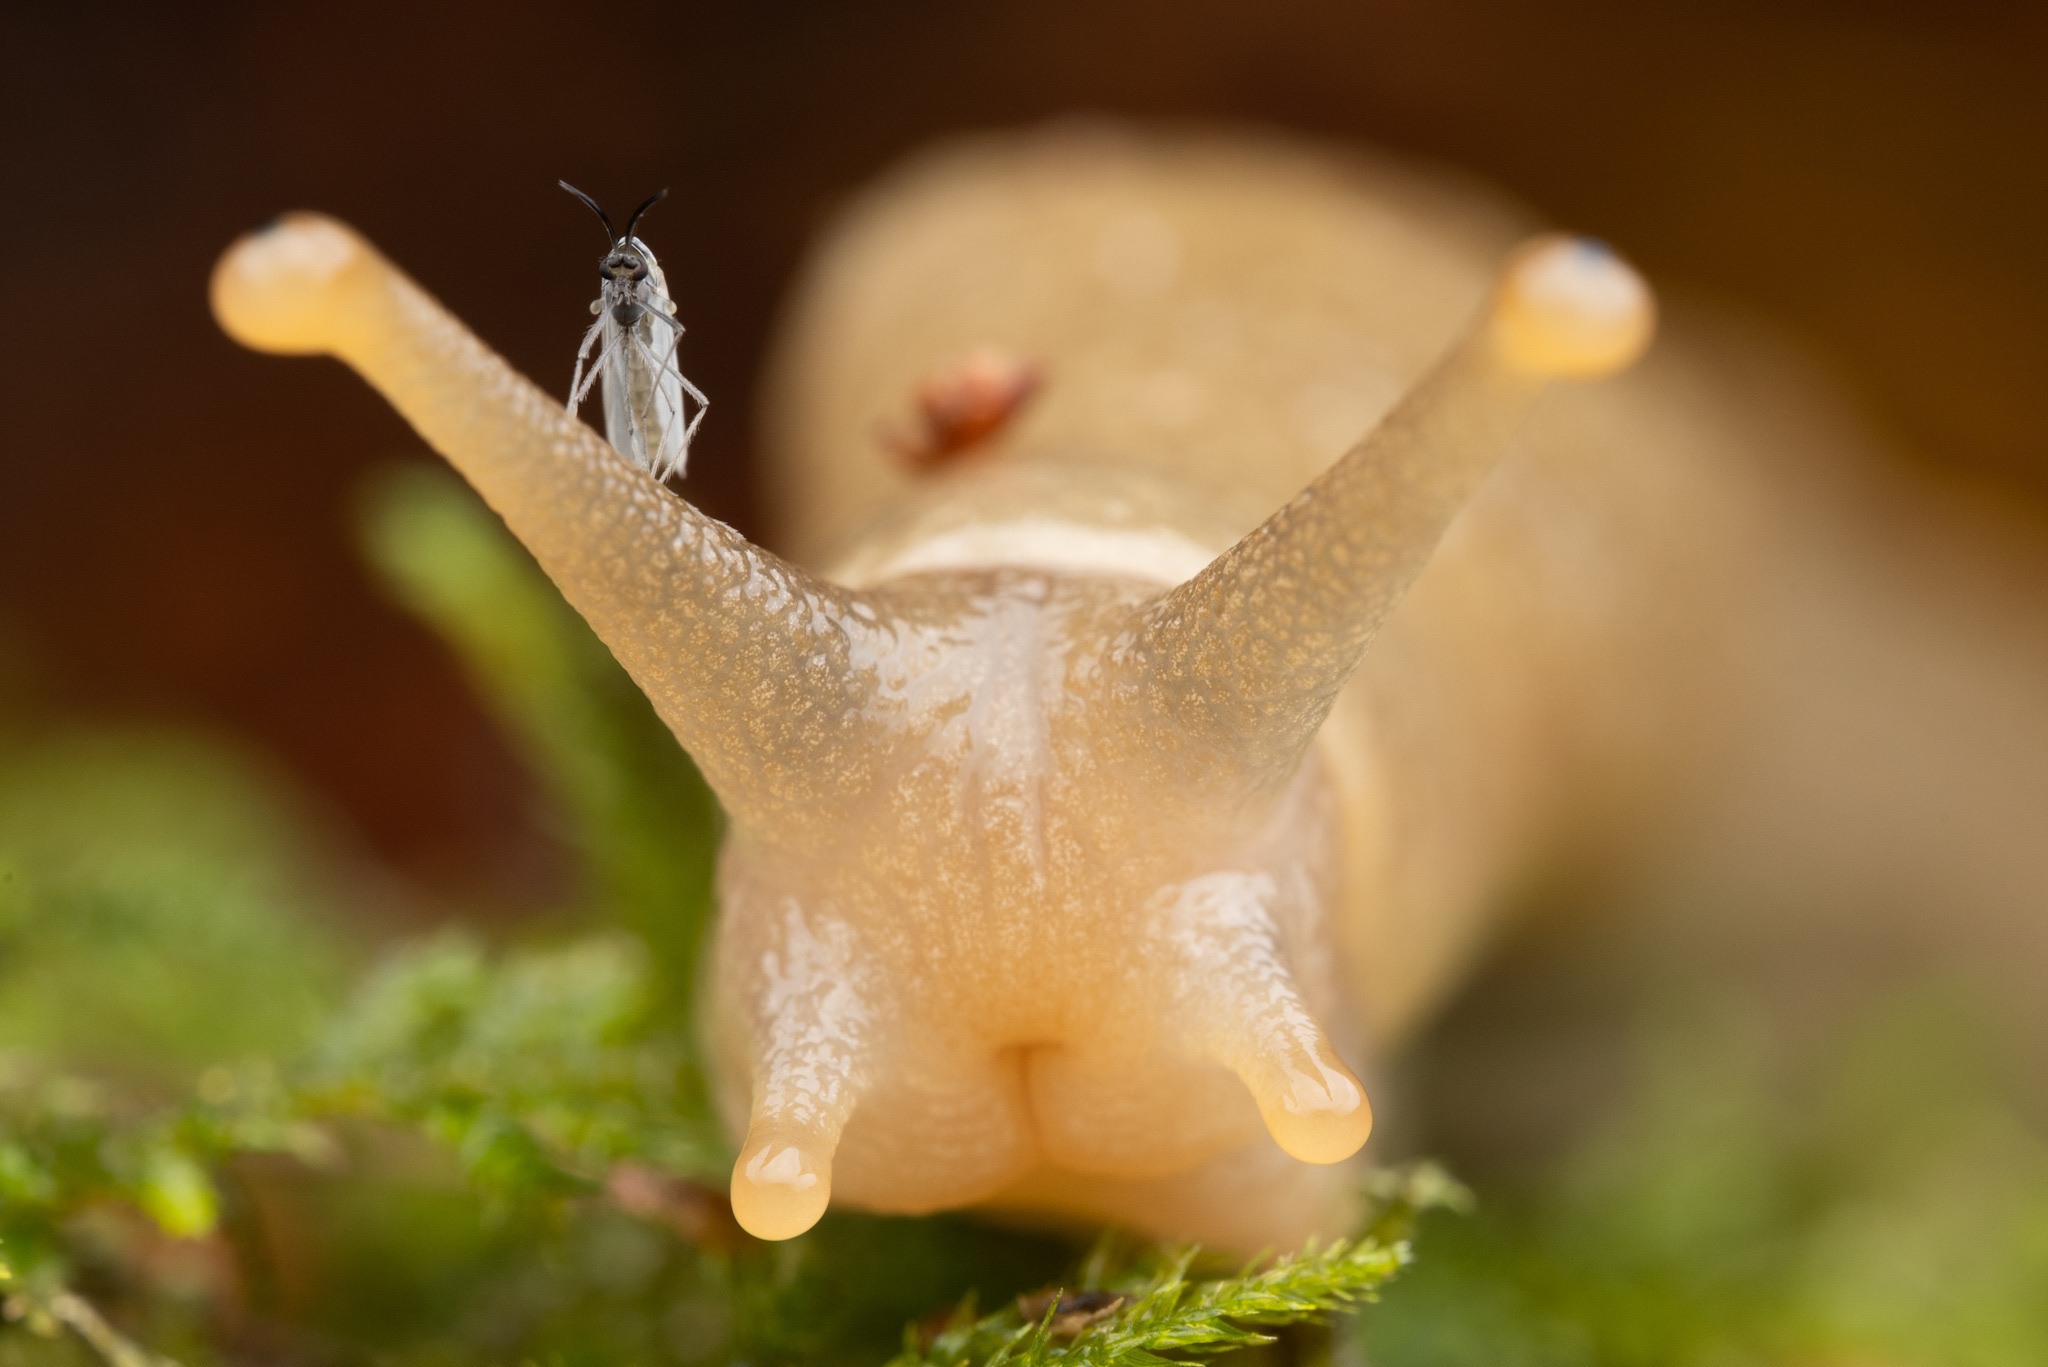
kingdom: Animalia
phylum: Mollusca
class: Gastropoda
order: Stylommatophora
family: Ariolimacidae
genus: Ariolimax
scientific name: Ariolimax columbianus
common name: Pacific banana slug
